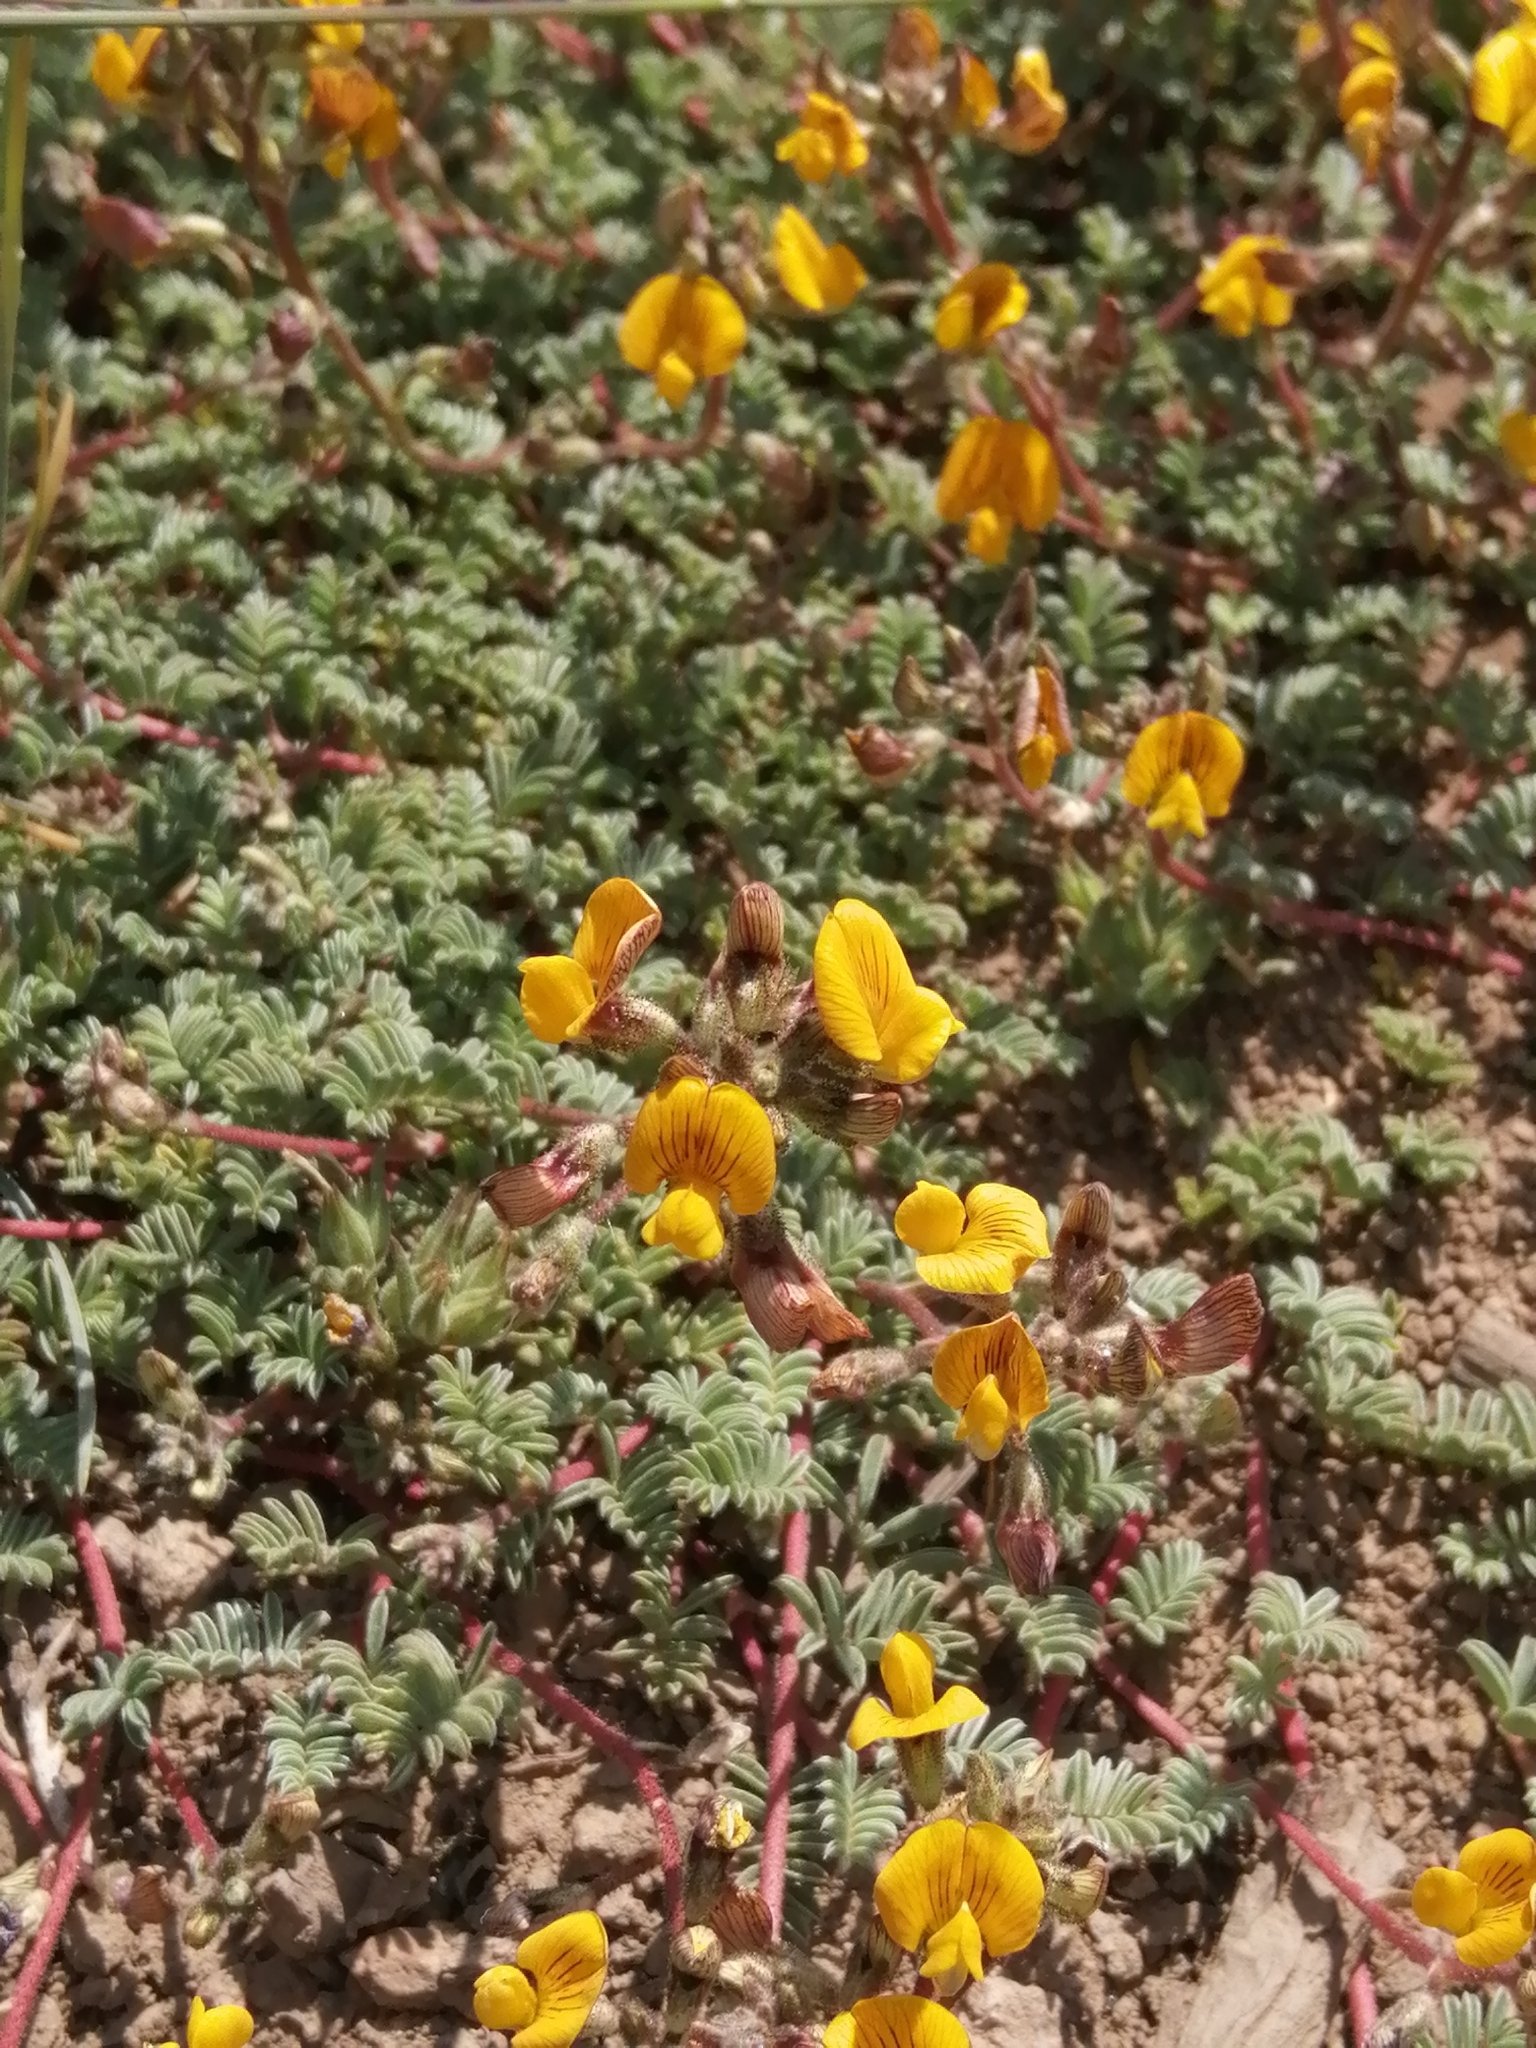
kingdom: Plantae
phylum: Tracheophyta
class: Magnoliopsida
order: Fabales
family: Fabaceae
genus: Adesmia
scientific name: Adesmia corymbosa
